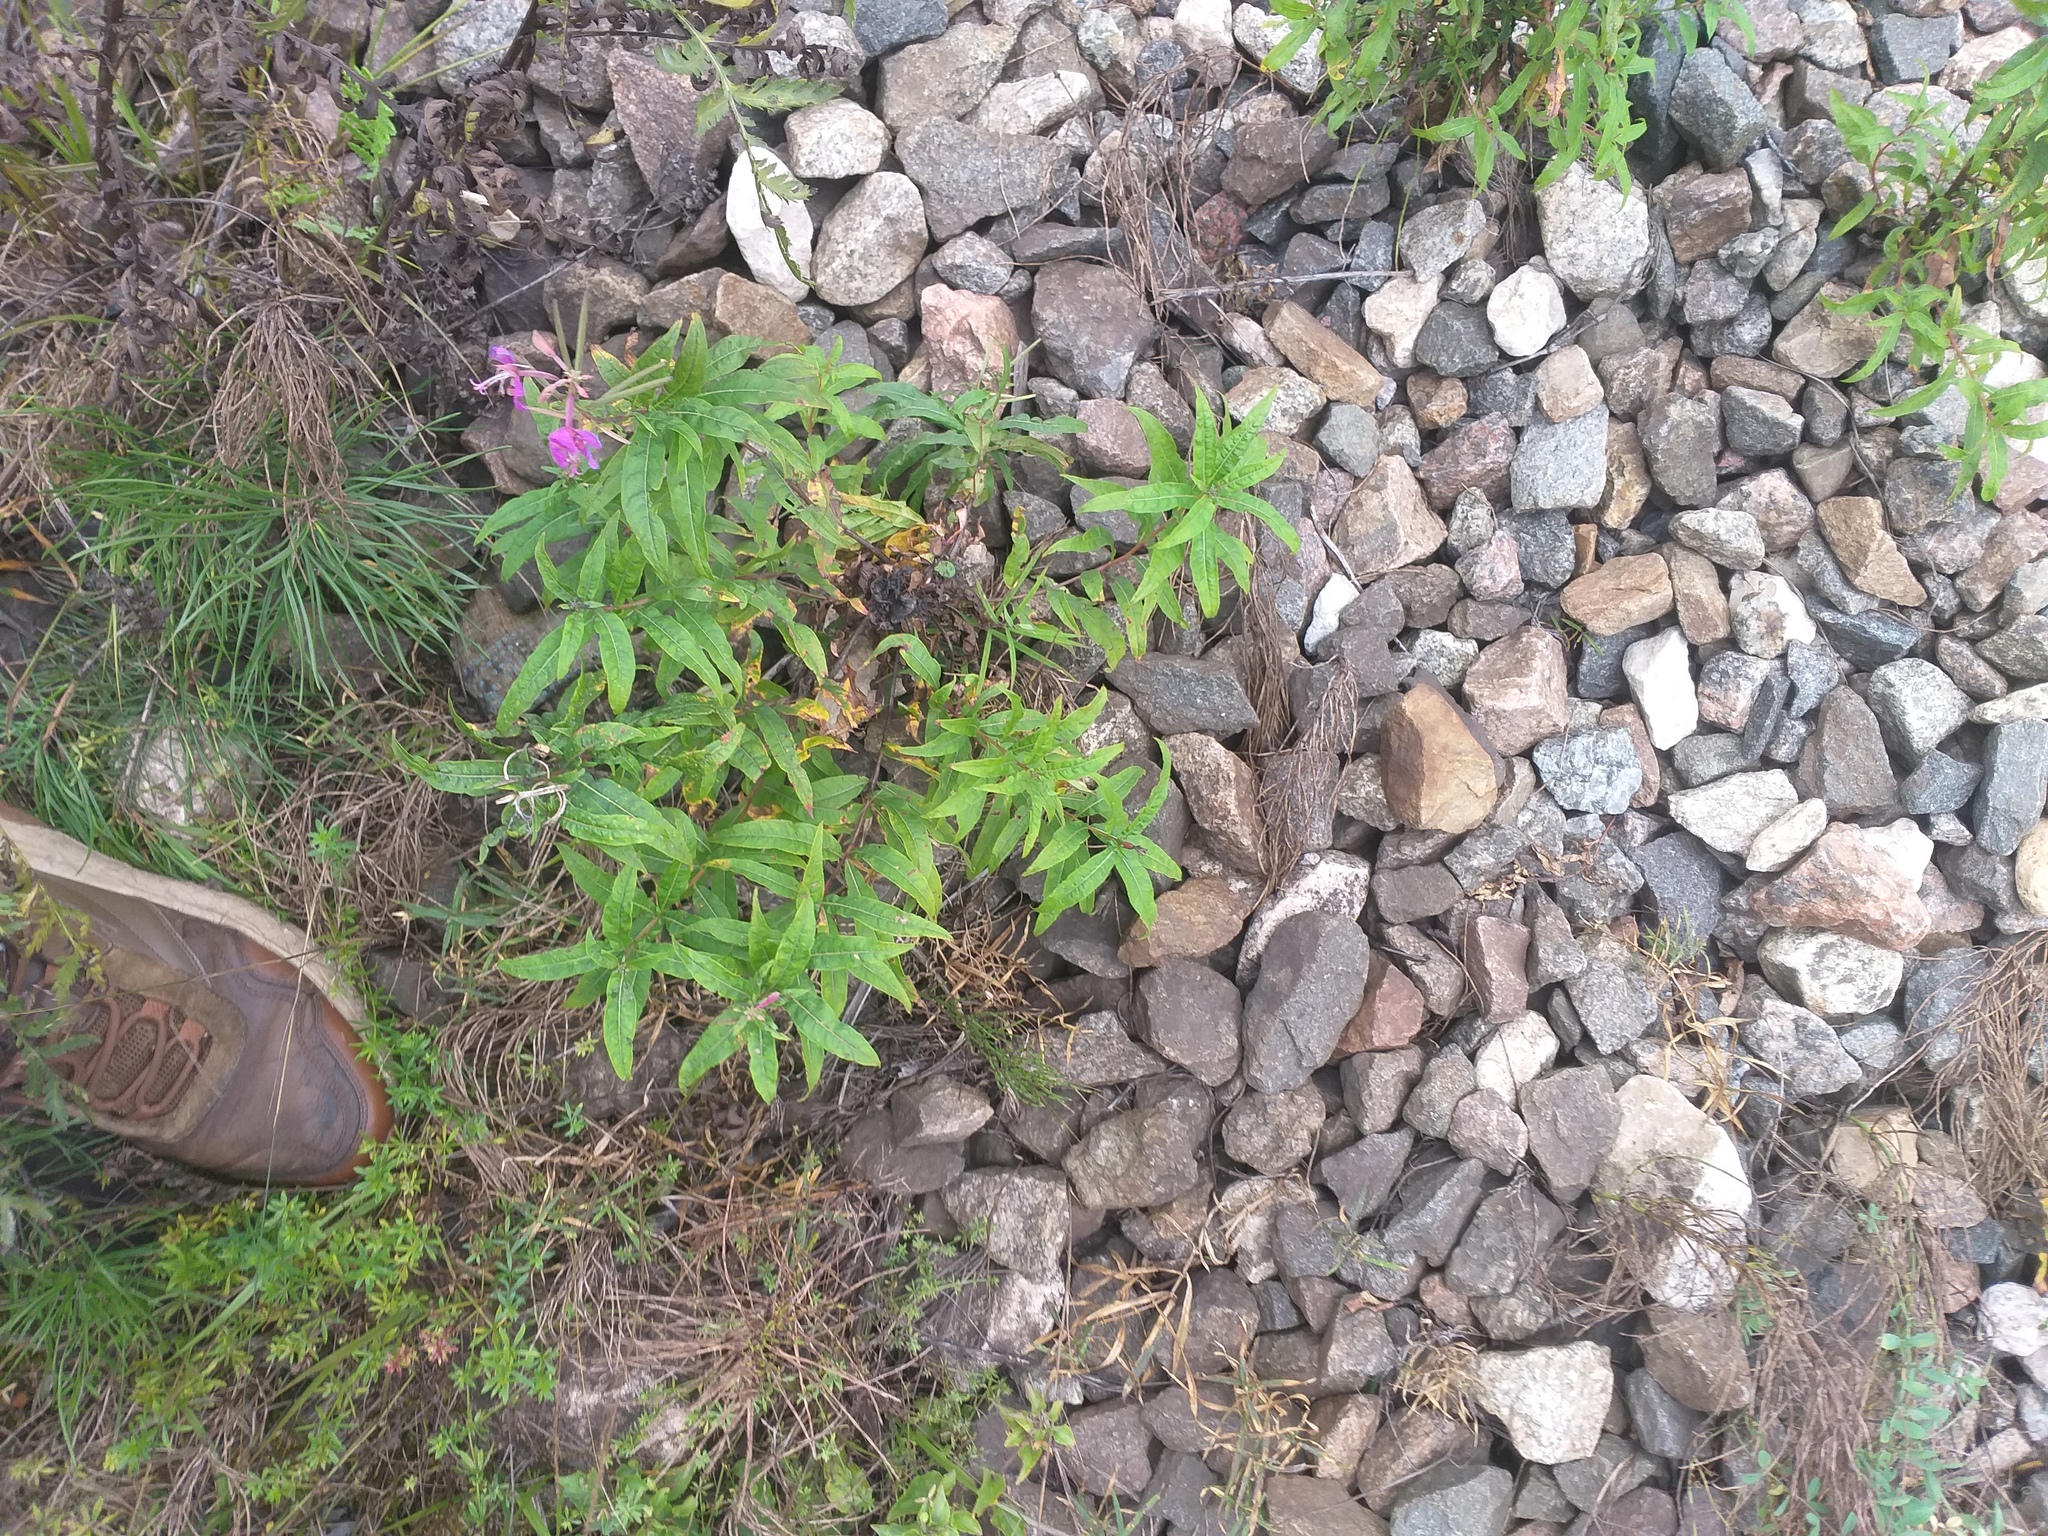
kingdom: Plantae
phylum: Tracheophyta
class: Magnoliopsida
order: Myrtales
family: Onagraceae
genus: Chamaenerion
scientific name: Chamaenerion angustifolium
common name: Fireweed
